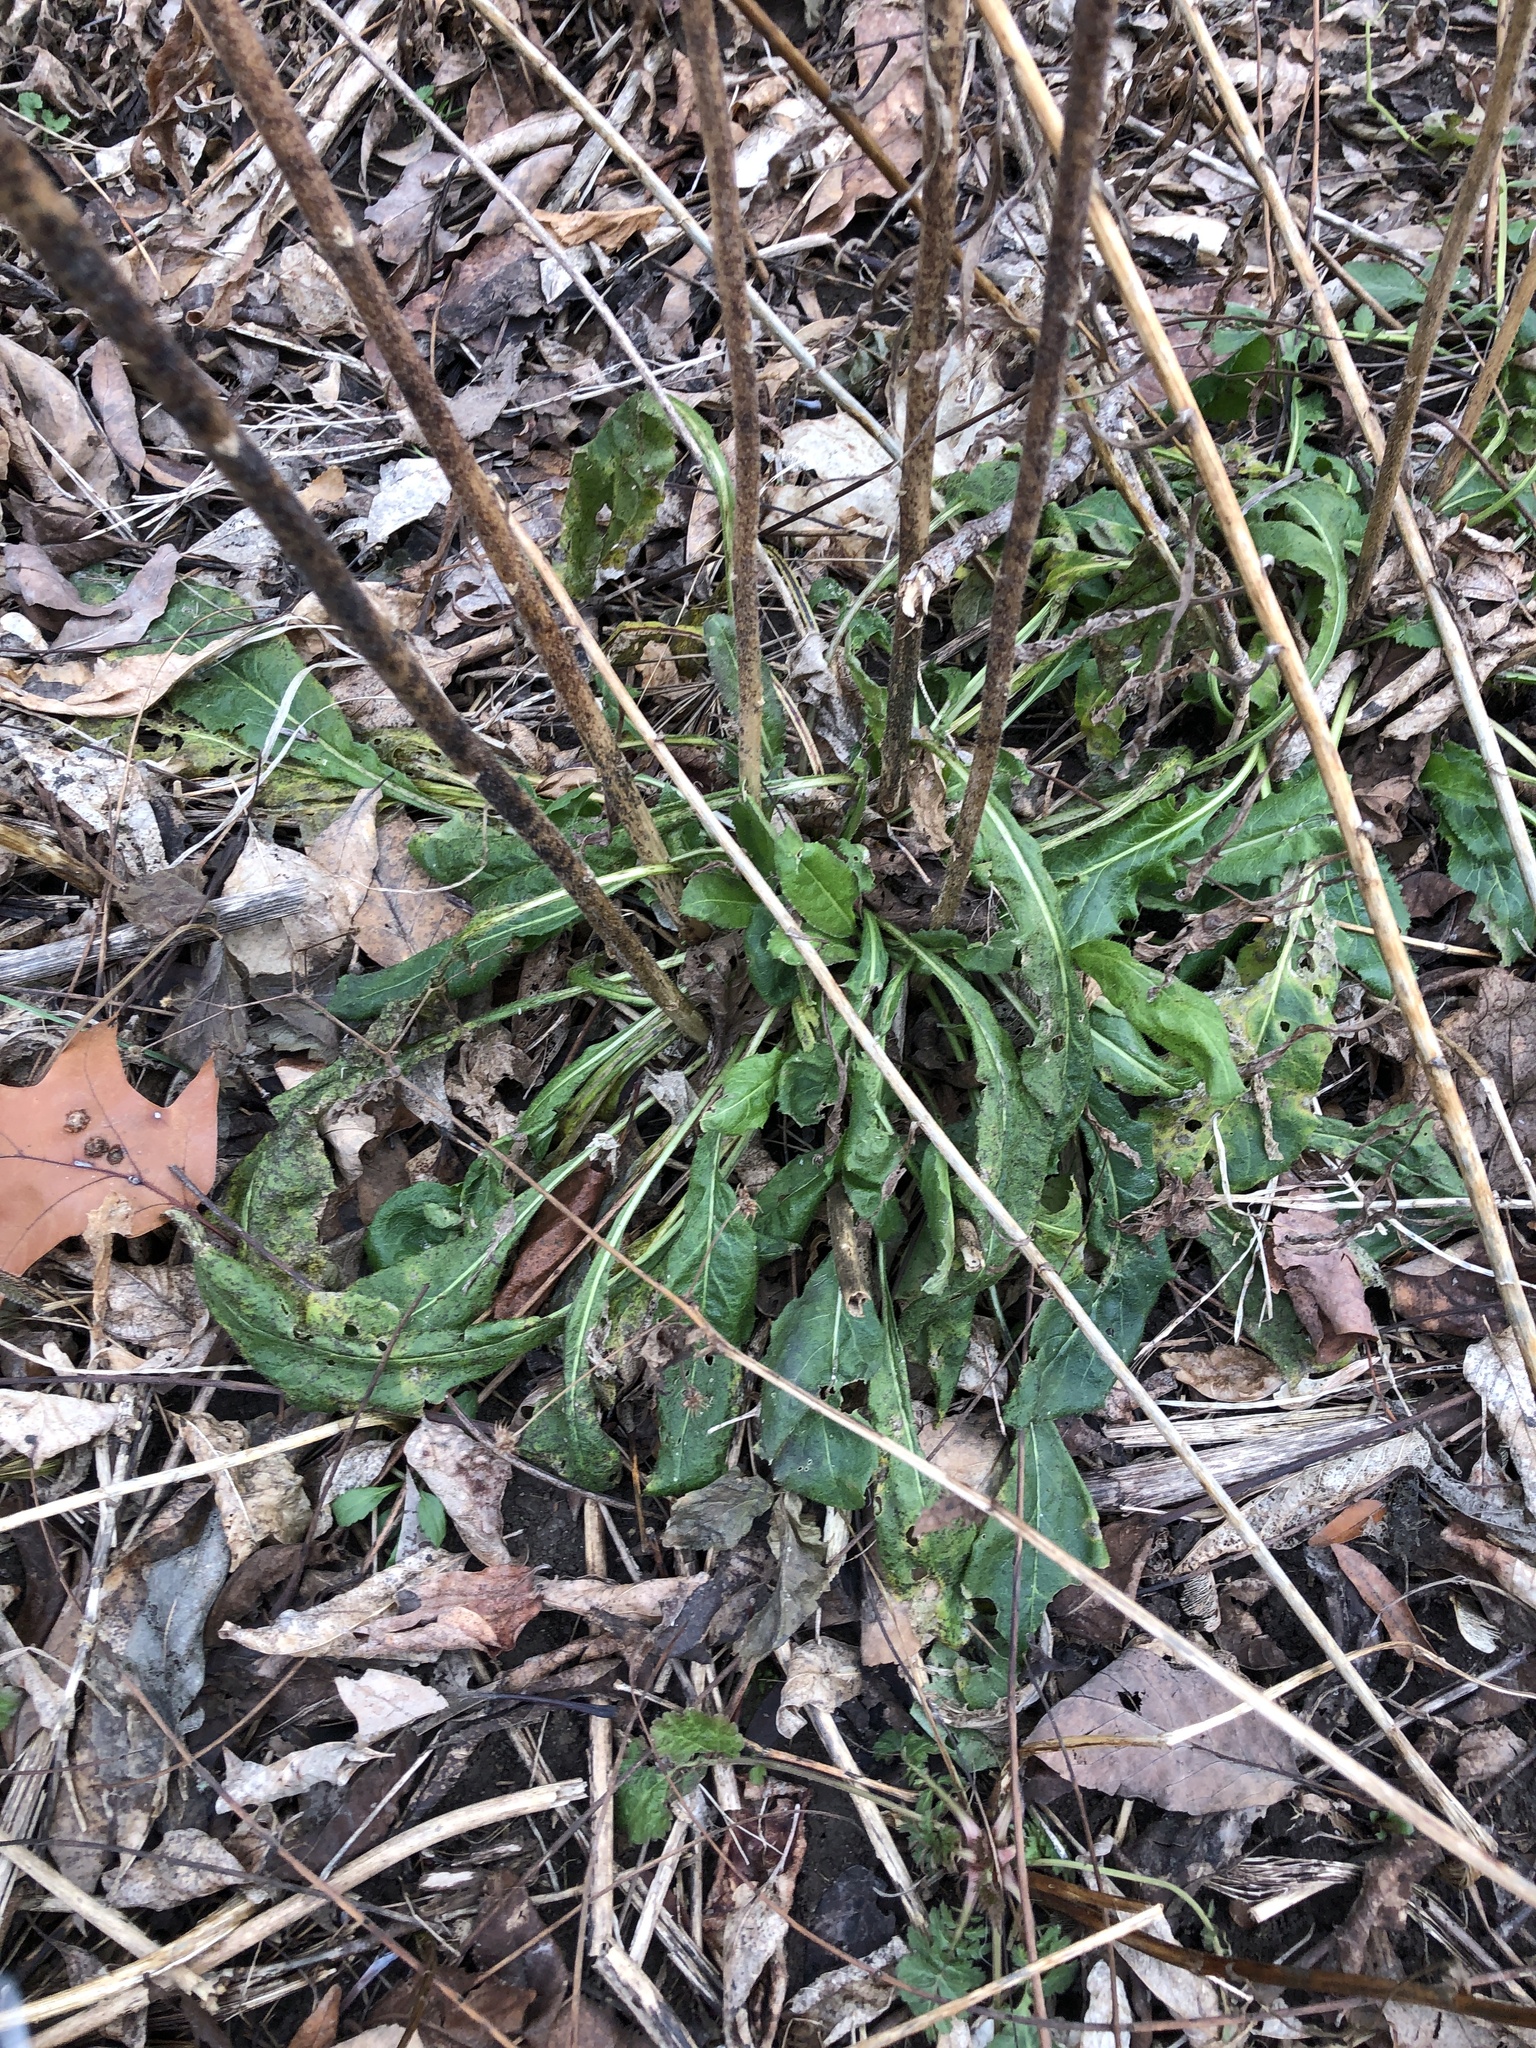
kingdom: Plantae
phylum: Tracheophyta
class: Magnoliopsida
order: Brassicales
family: Brassicaceae
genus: Hesperis
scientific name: Hesperis matronalis
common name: Dame's-violet
